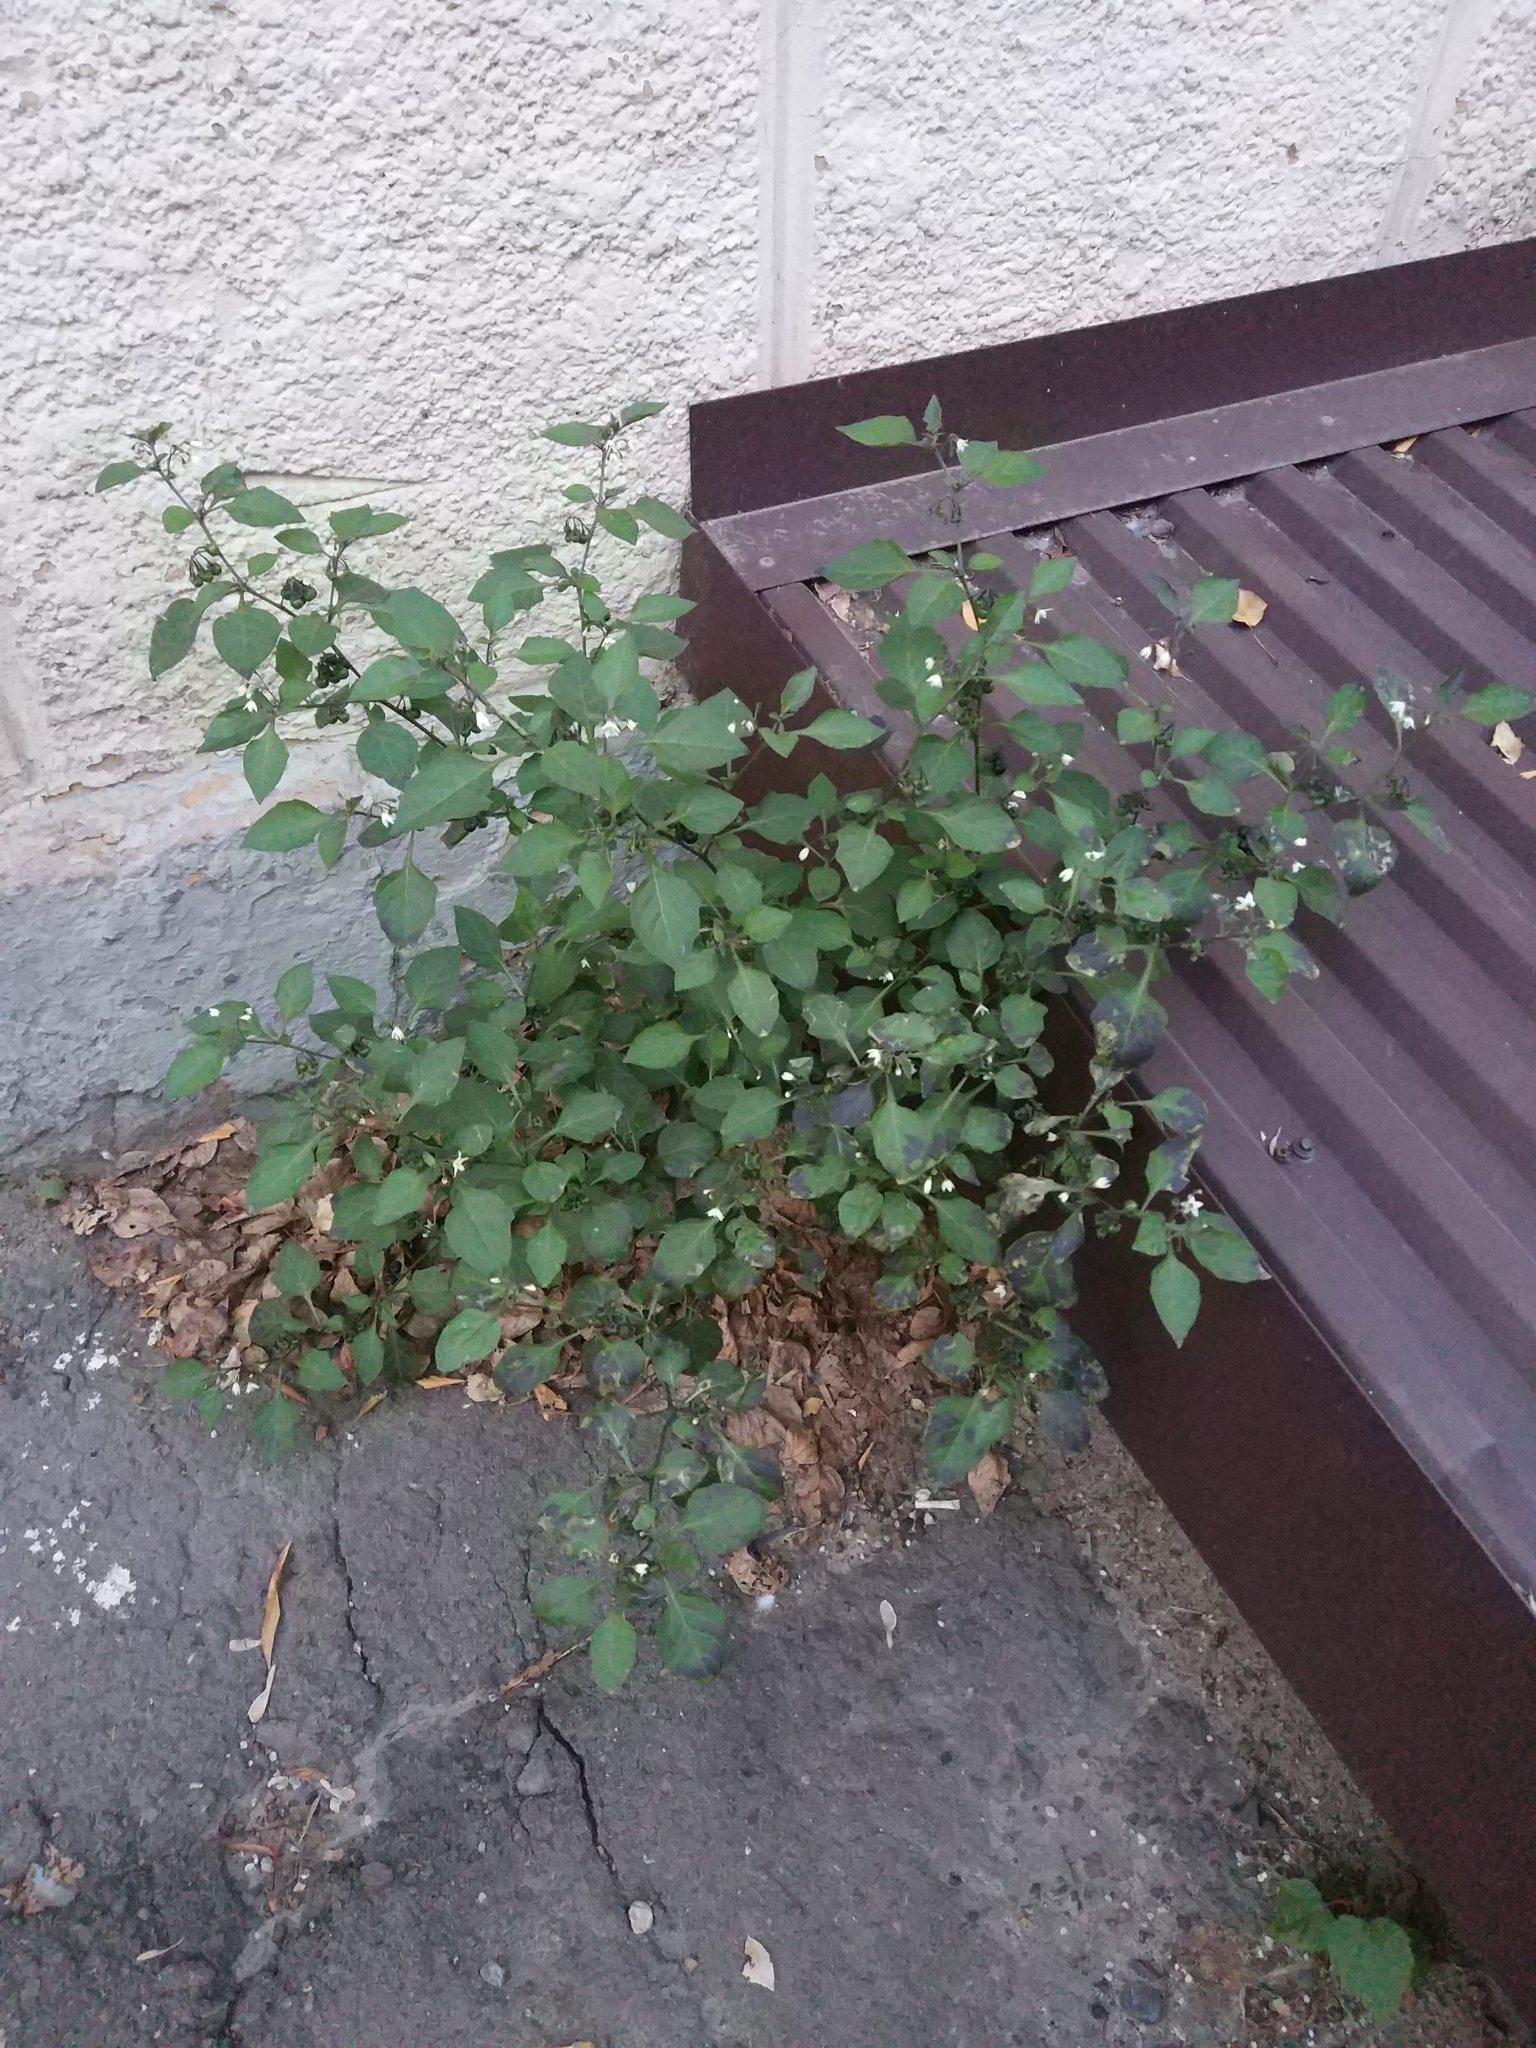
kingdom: Plantae
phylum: Tracheophyta
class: Magnoliopsida
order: Solanales
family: Solanaceae
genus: Solanum
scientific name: Solanum nigrum
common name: Black nightshade
